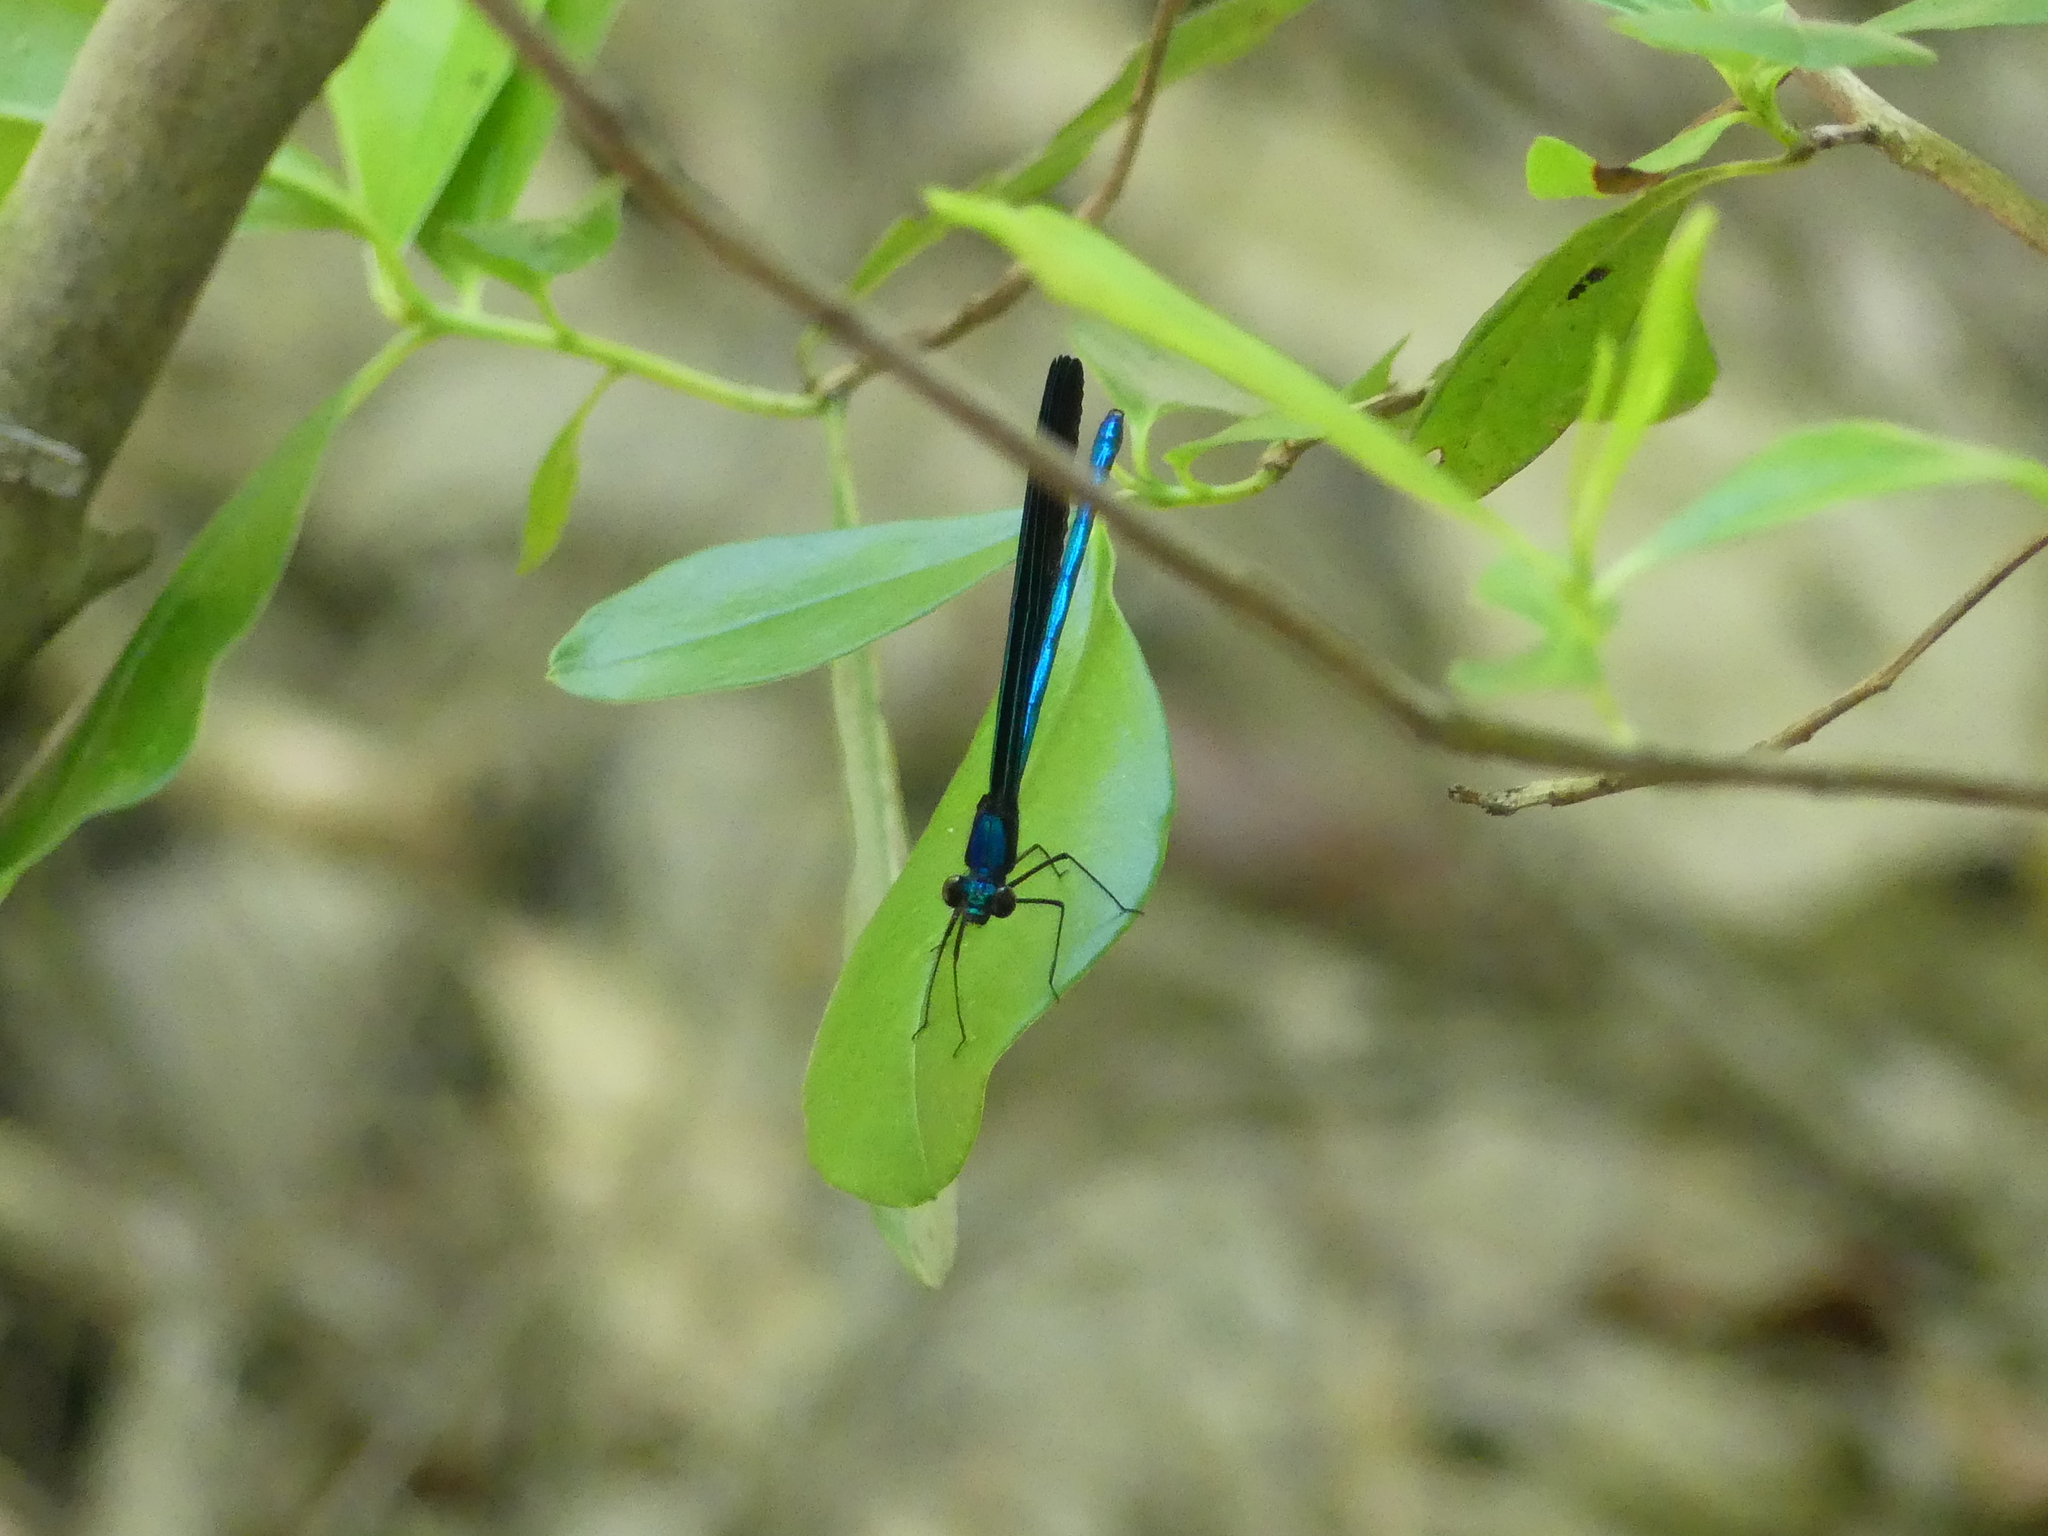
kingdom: Animalia
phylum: Arthropoda
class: Insecta
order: Odonata
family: Calopterygidae
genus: Calopteryx
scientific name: Calopteryx maculata
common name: Ebony jewelwing
